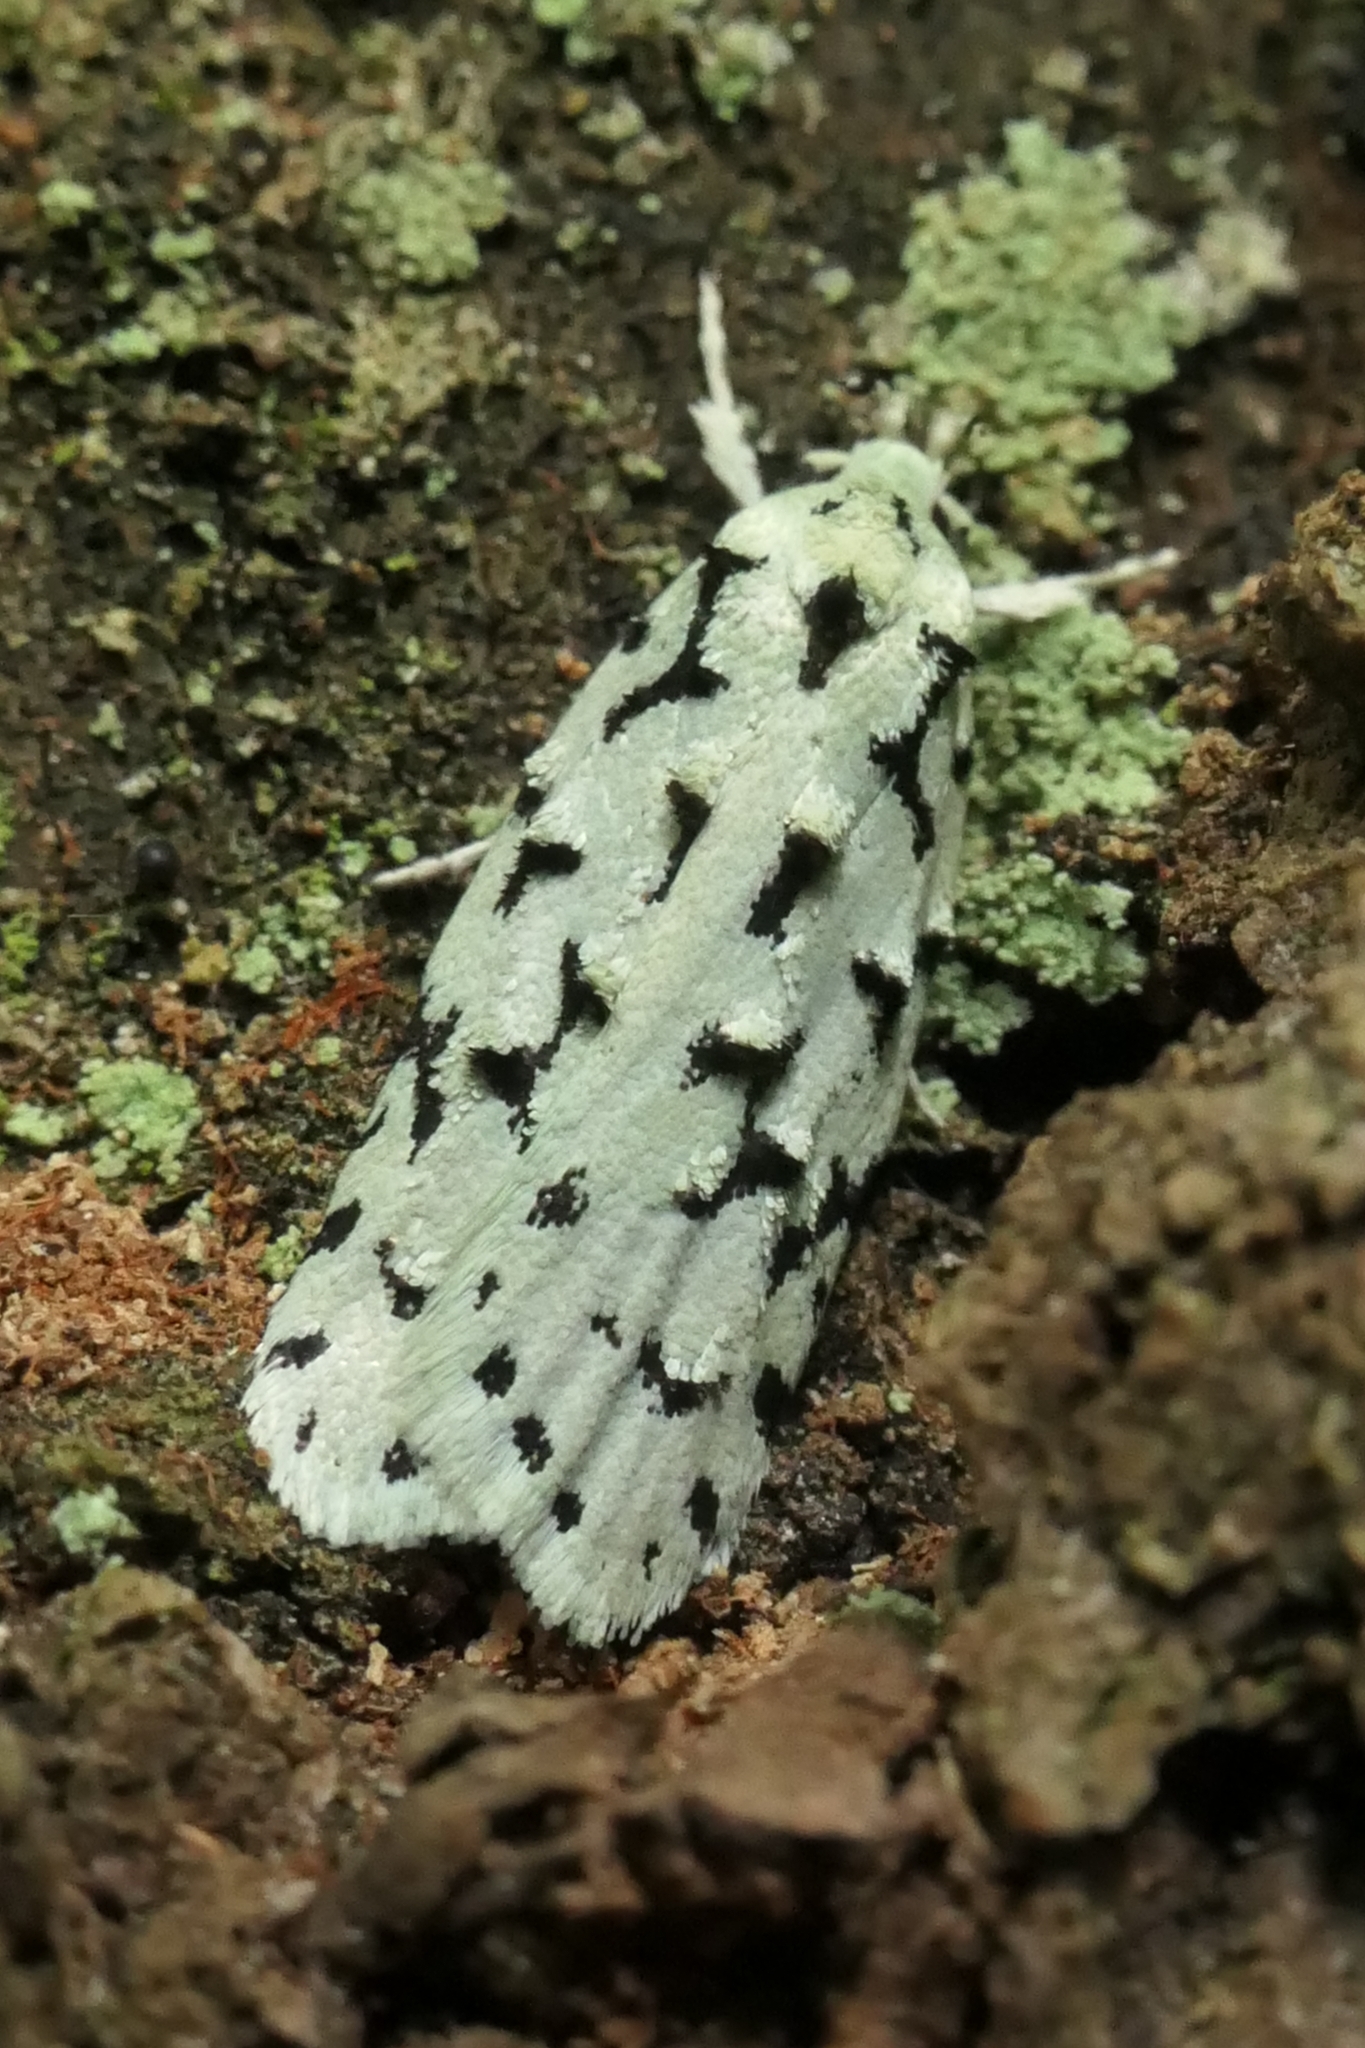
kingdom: Animalia
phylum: Arthropoda
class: Insecta
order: Lepidoptera
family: Oecophoridae
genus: Izatha
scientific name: Izatha huttoni
